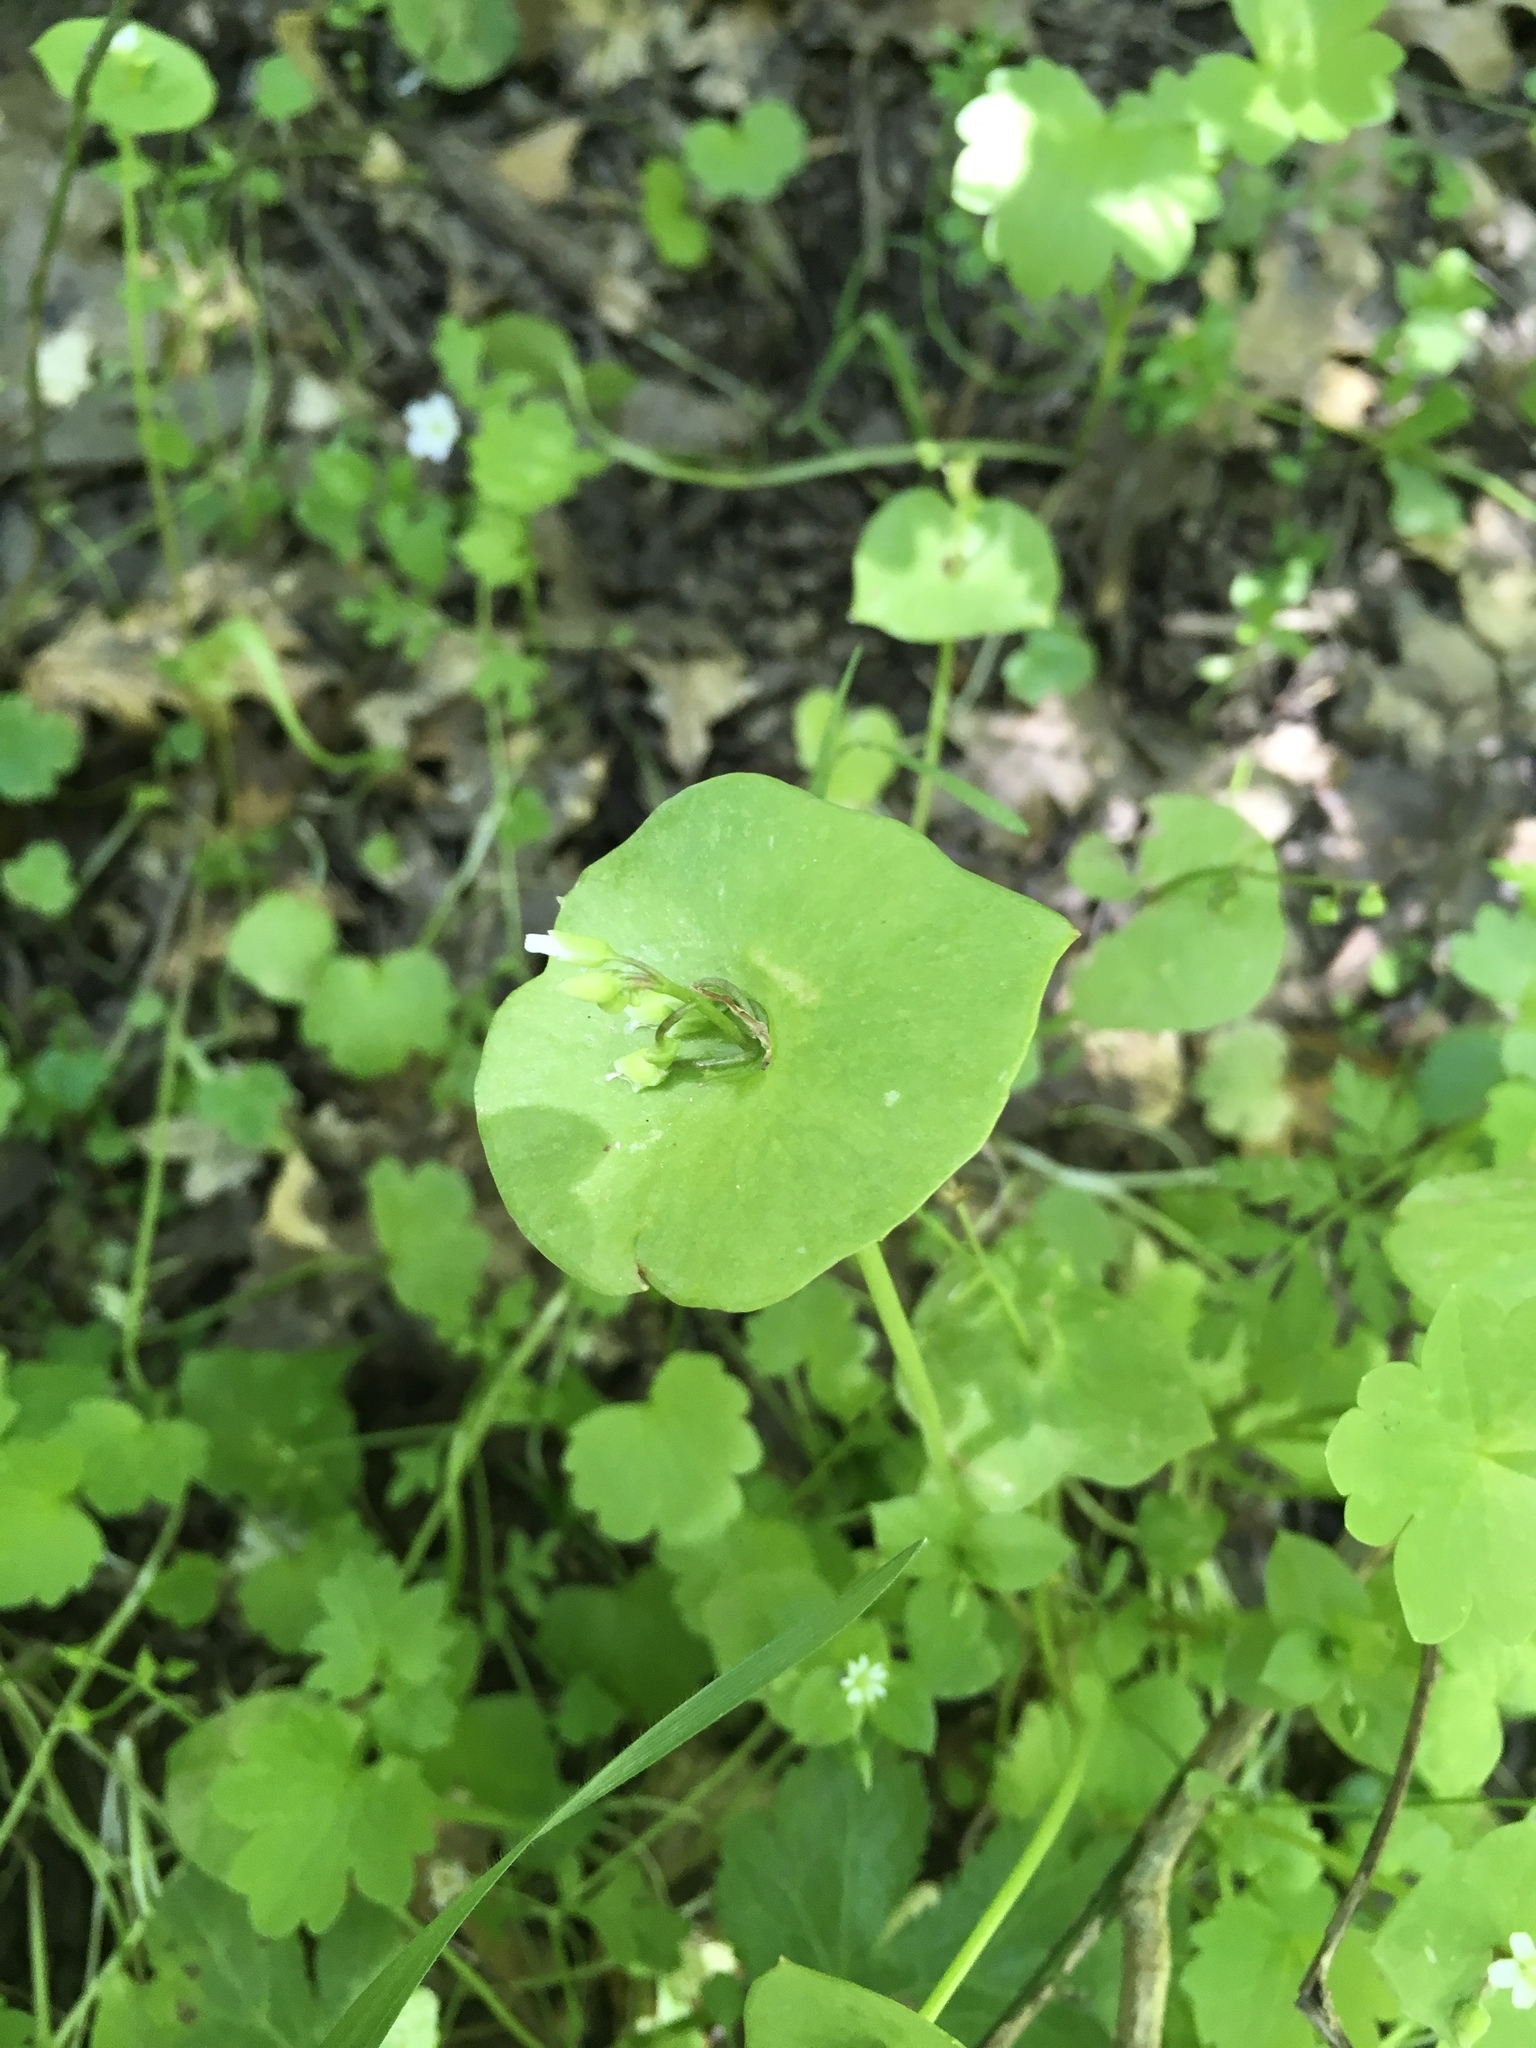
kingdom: Plantae
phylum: Tracheophyta
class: Magnoliopsida
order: Caryophyllales
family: Montiaceae
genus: Claytonia
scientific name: Claytonia perfoliata
